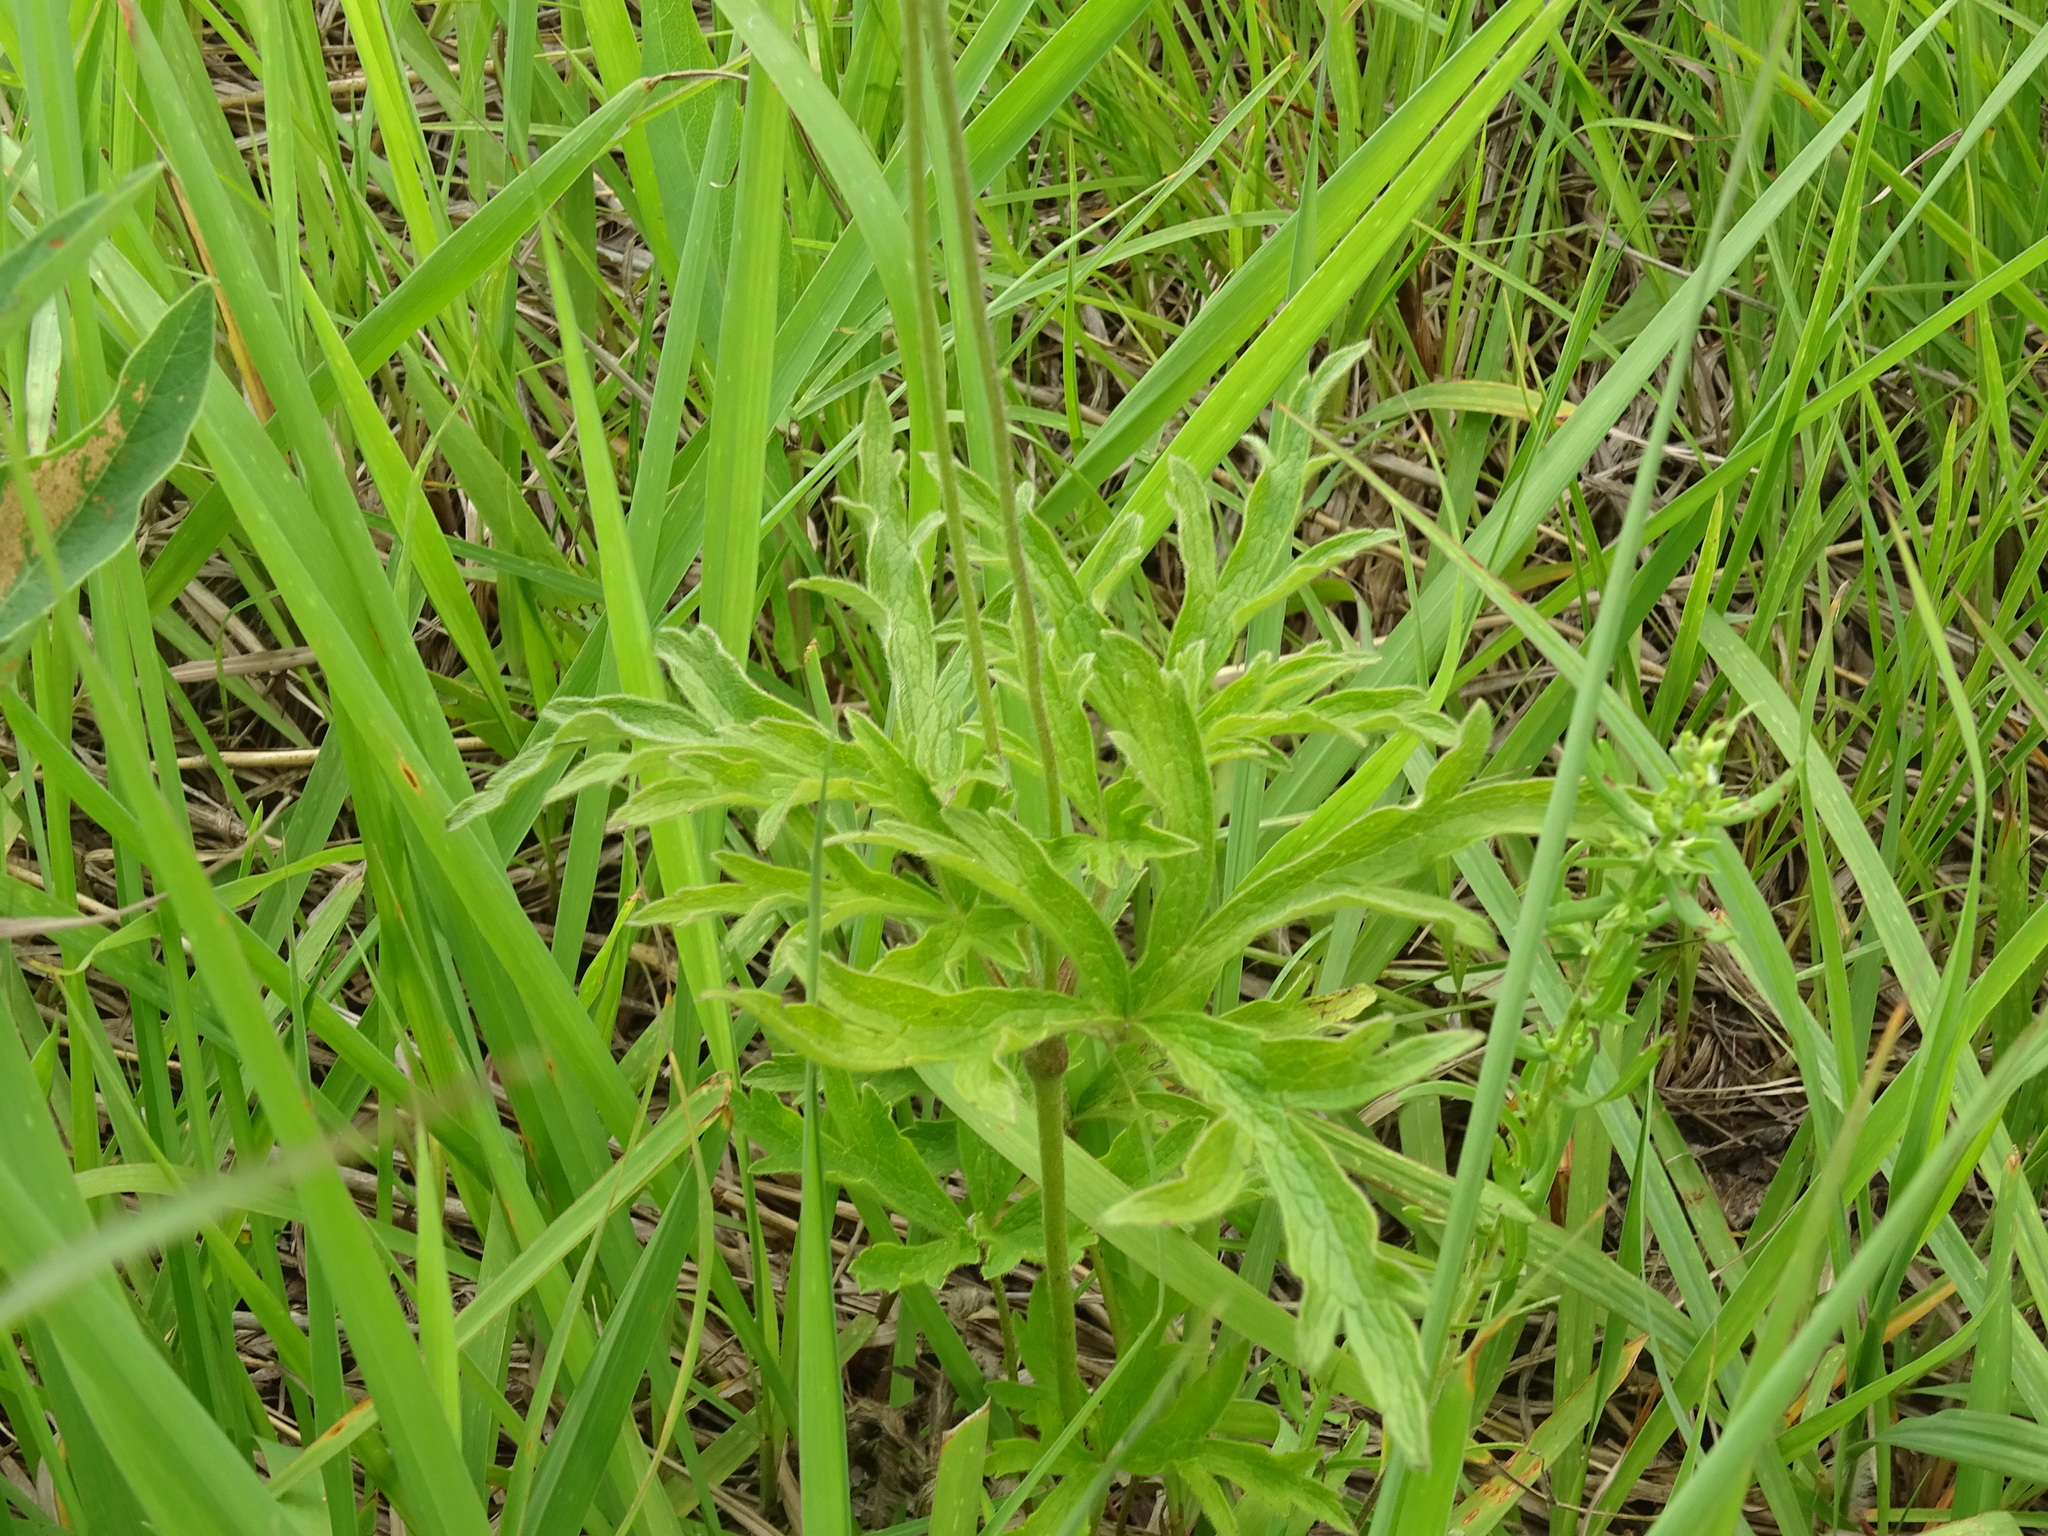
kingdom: Plantae
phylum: Tracheophyta
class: Magnoliopsida
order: Ranunculales
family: Ranunculaceae
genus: Anemone
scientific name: Anemone cylindrica
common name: Candle anemone
